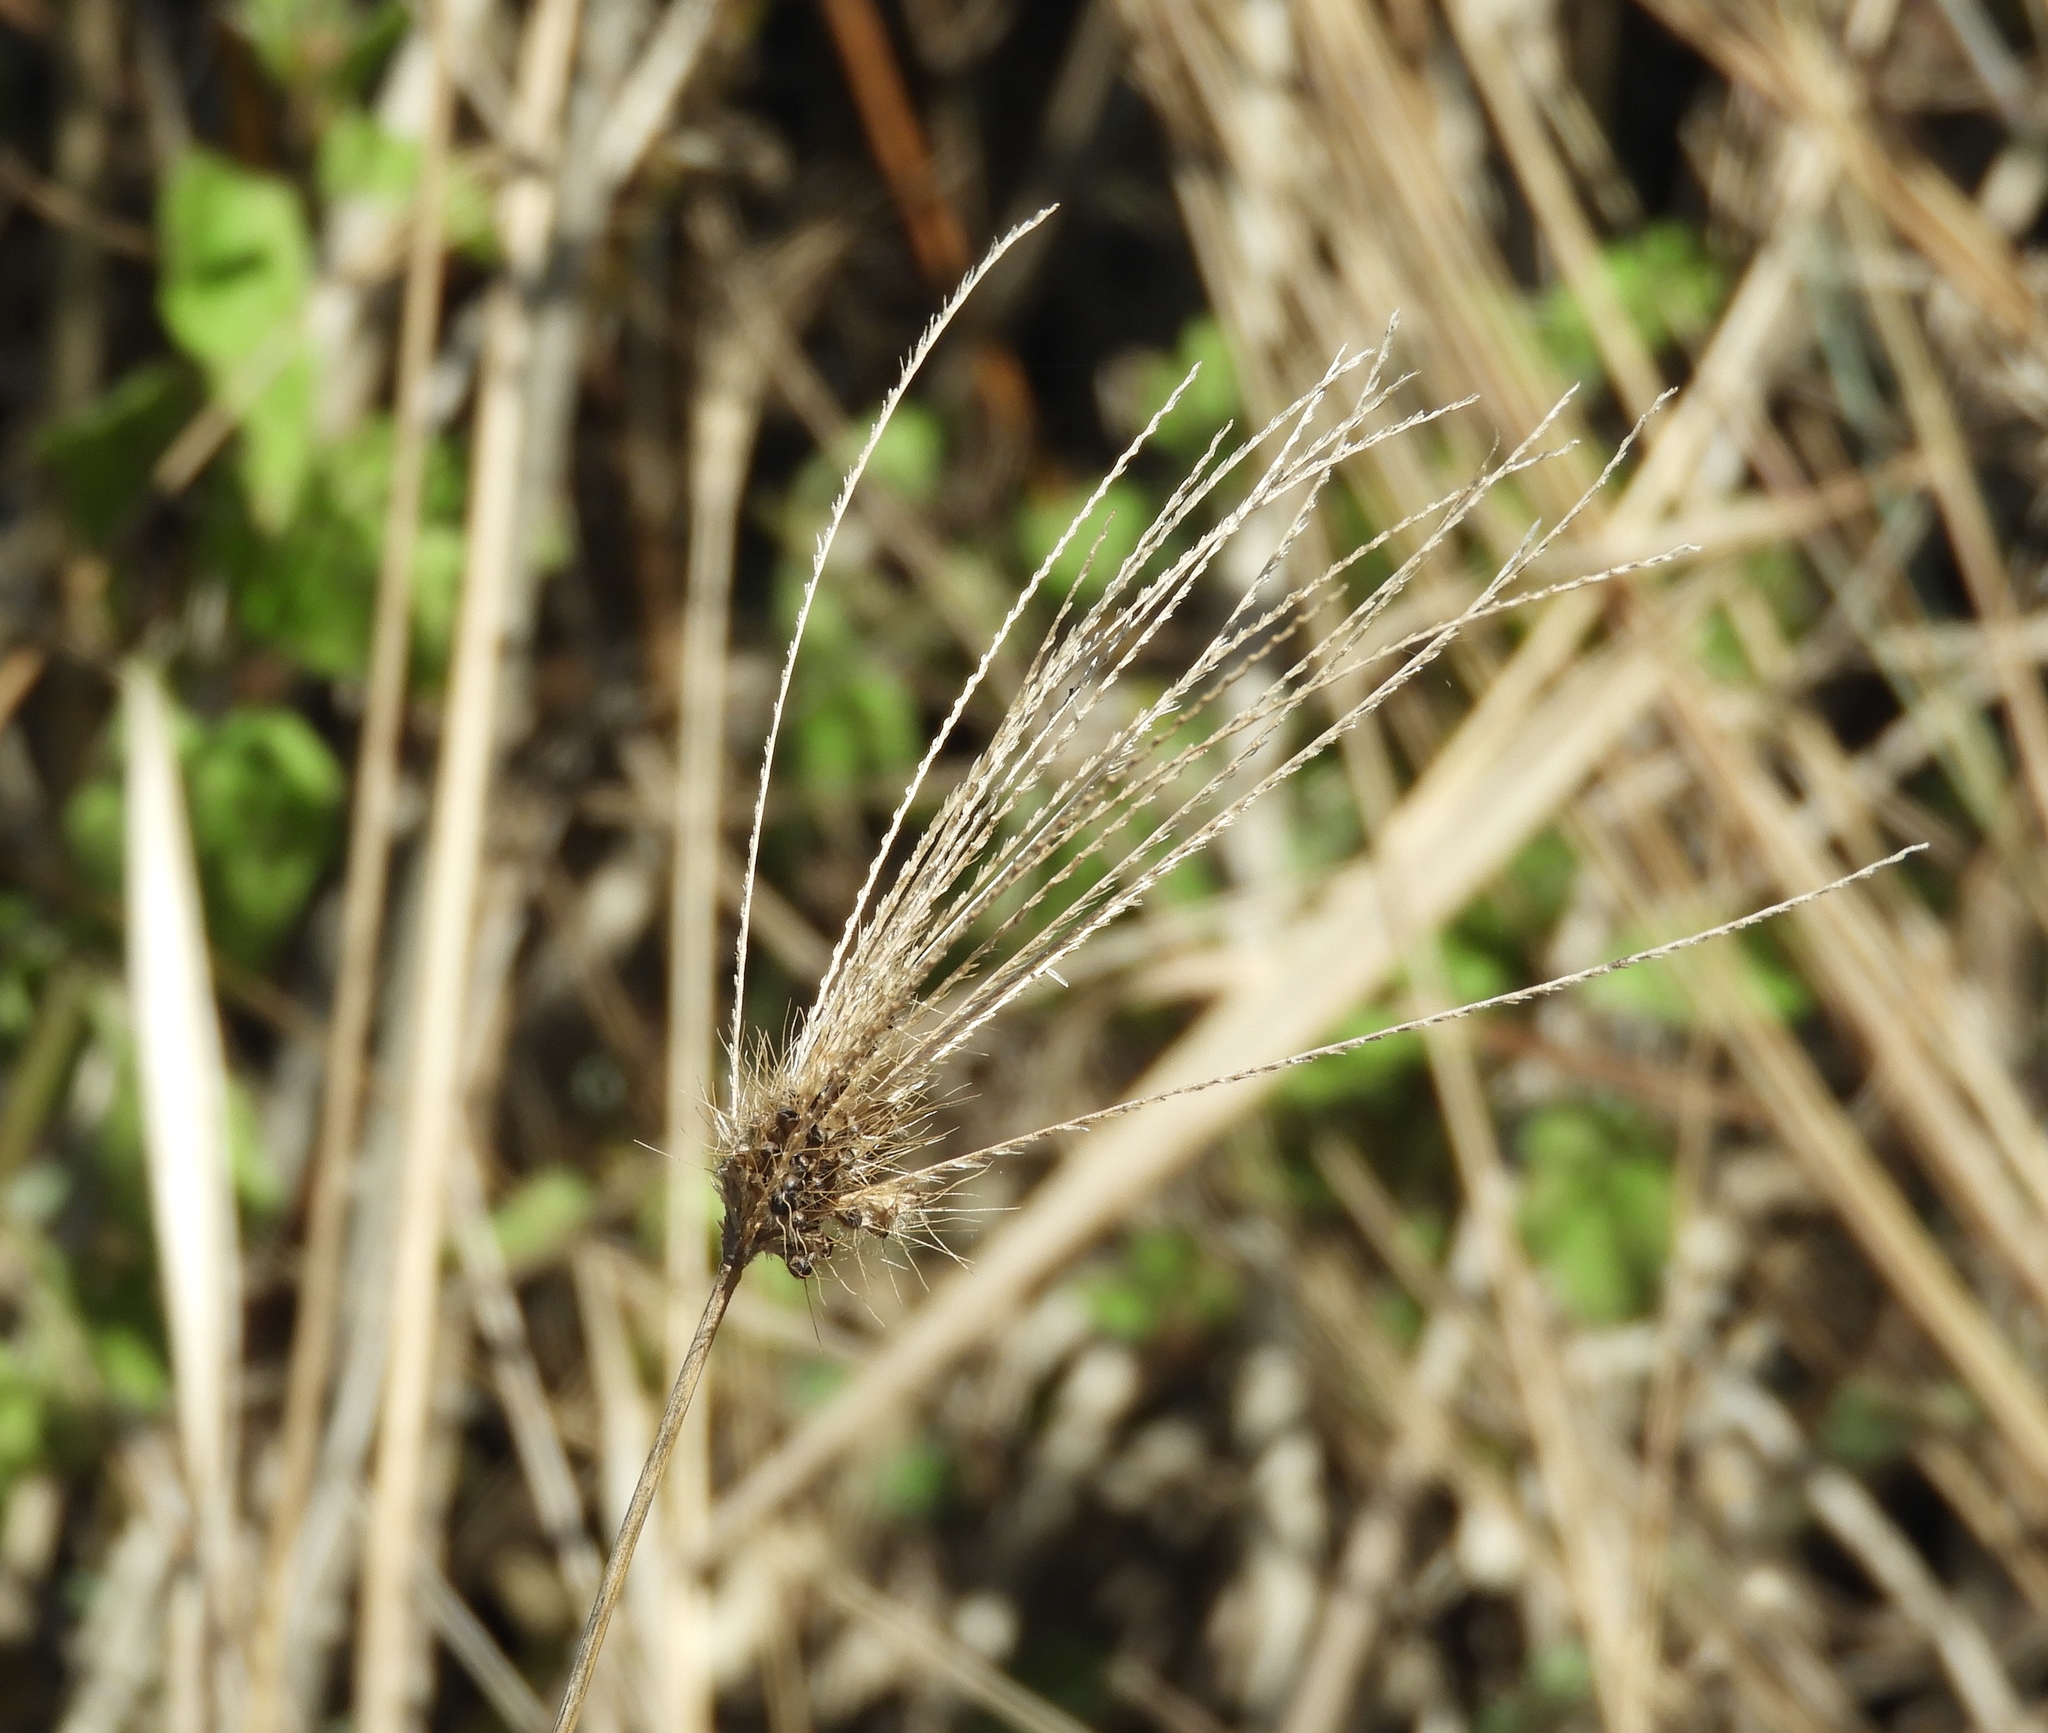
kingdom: Plantae
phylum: Tracheophyta
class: Liliopsida
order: Poales
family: Poaceae
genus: Chloris
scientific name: Chloris virgata
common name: Feathery rhodes-grass
